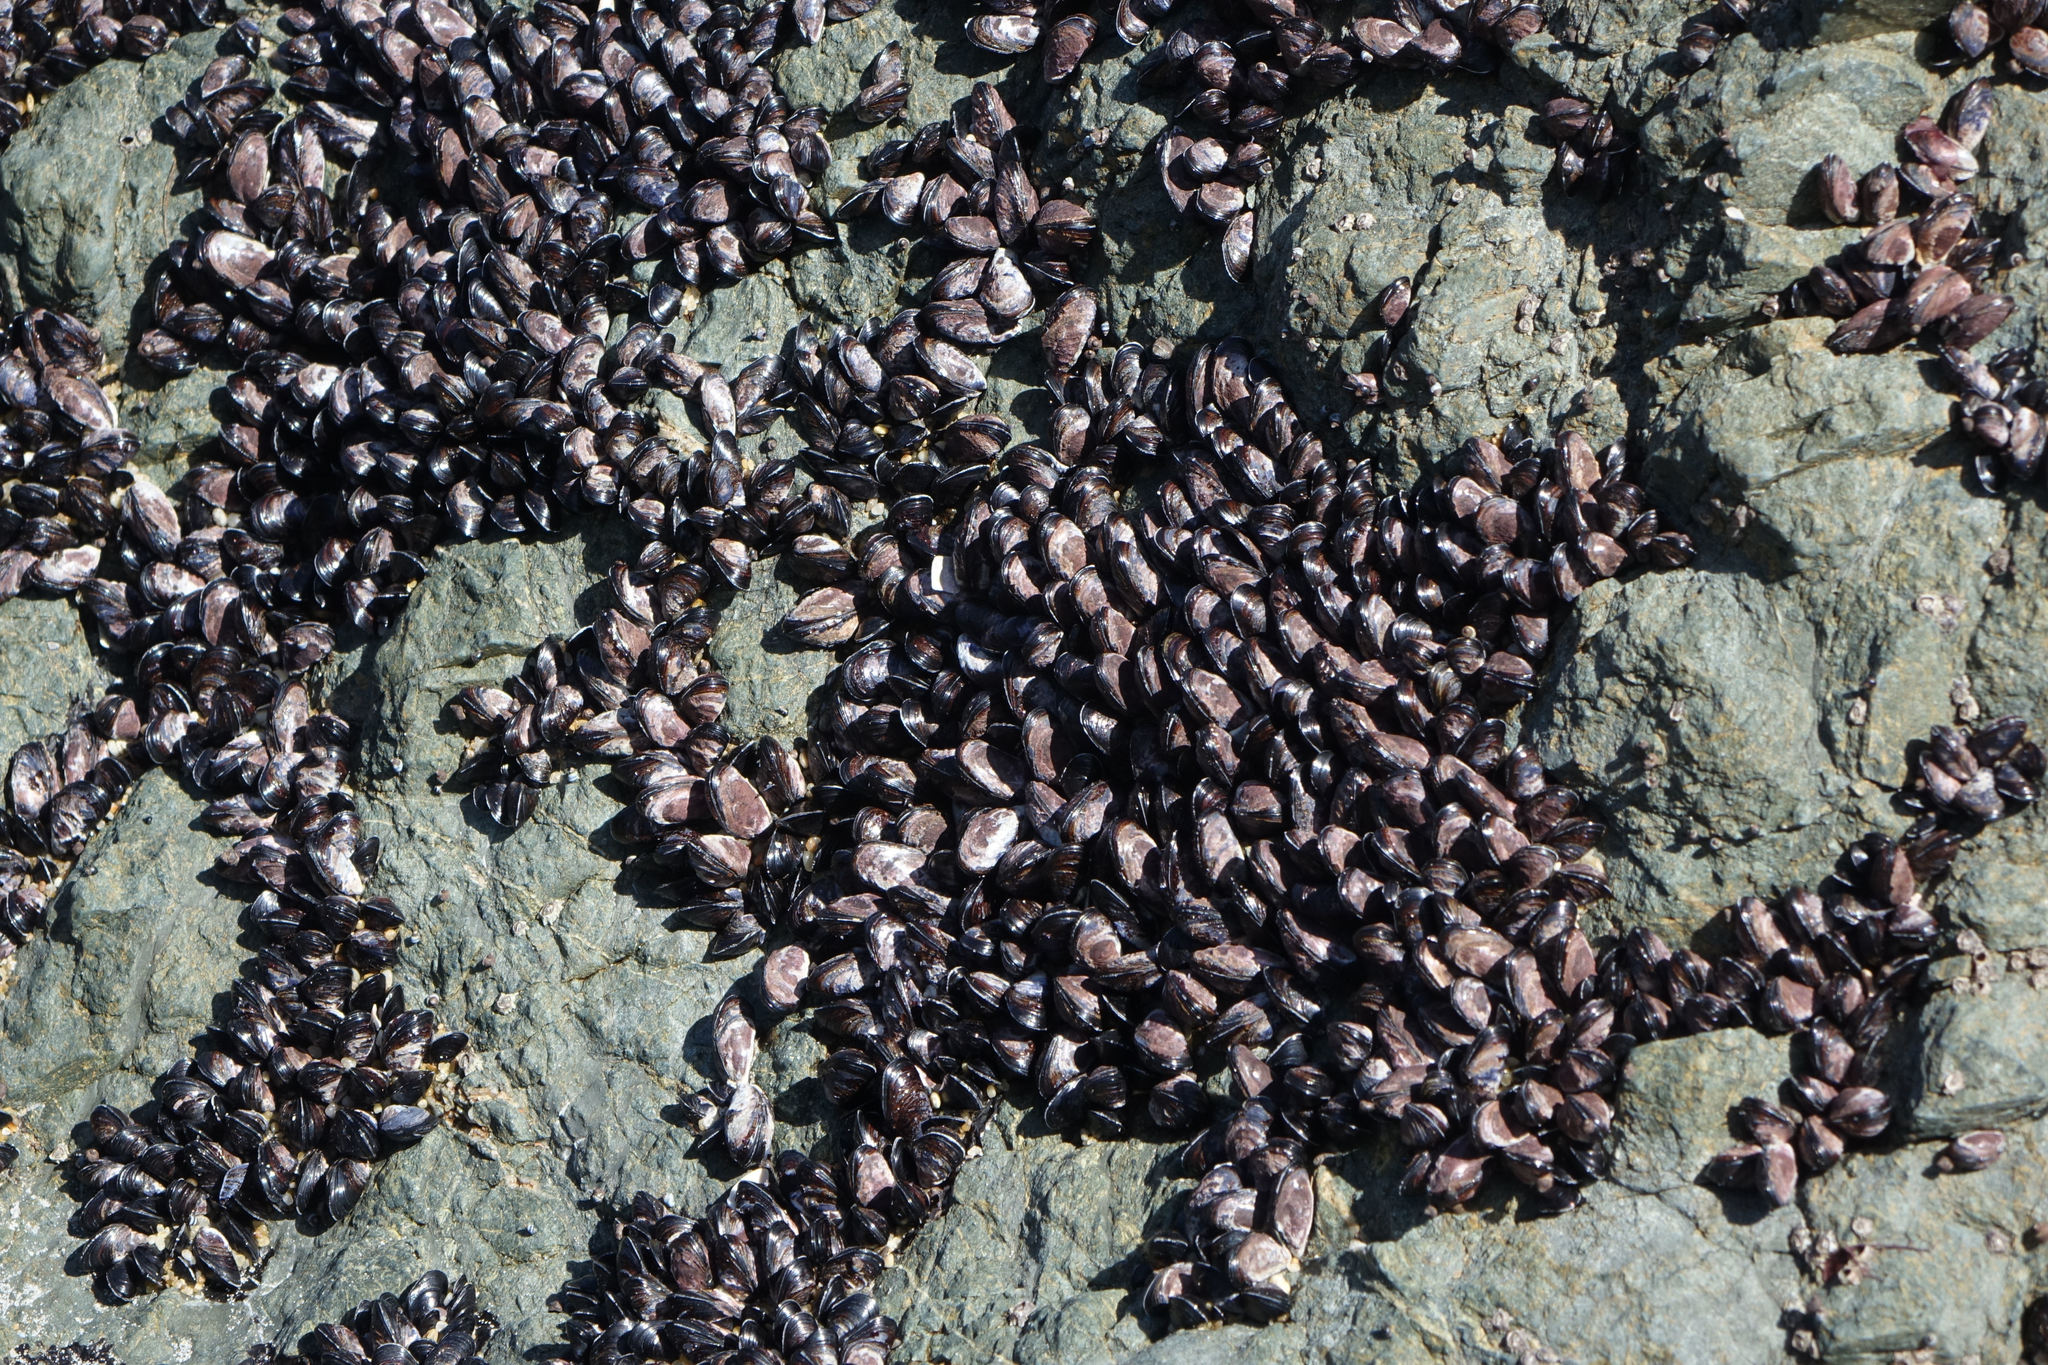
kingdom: Animalia
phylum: Mollusca
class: Bivalvia
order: Mytilida
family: Mytilidae
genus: Xenostrobus
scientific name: Xenostrobus neozelanicus
